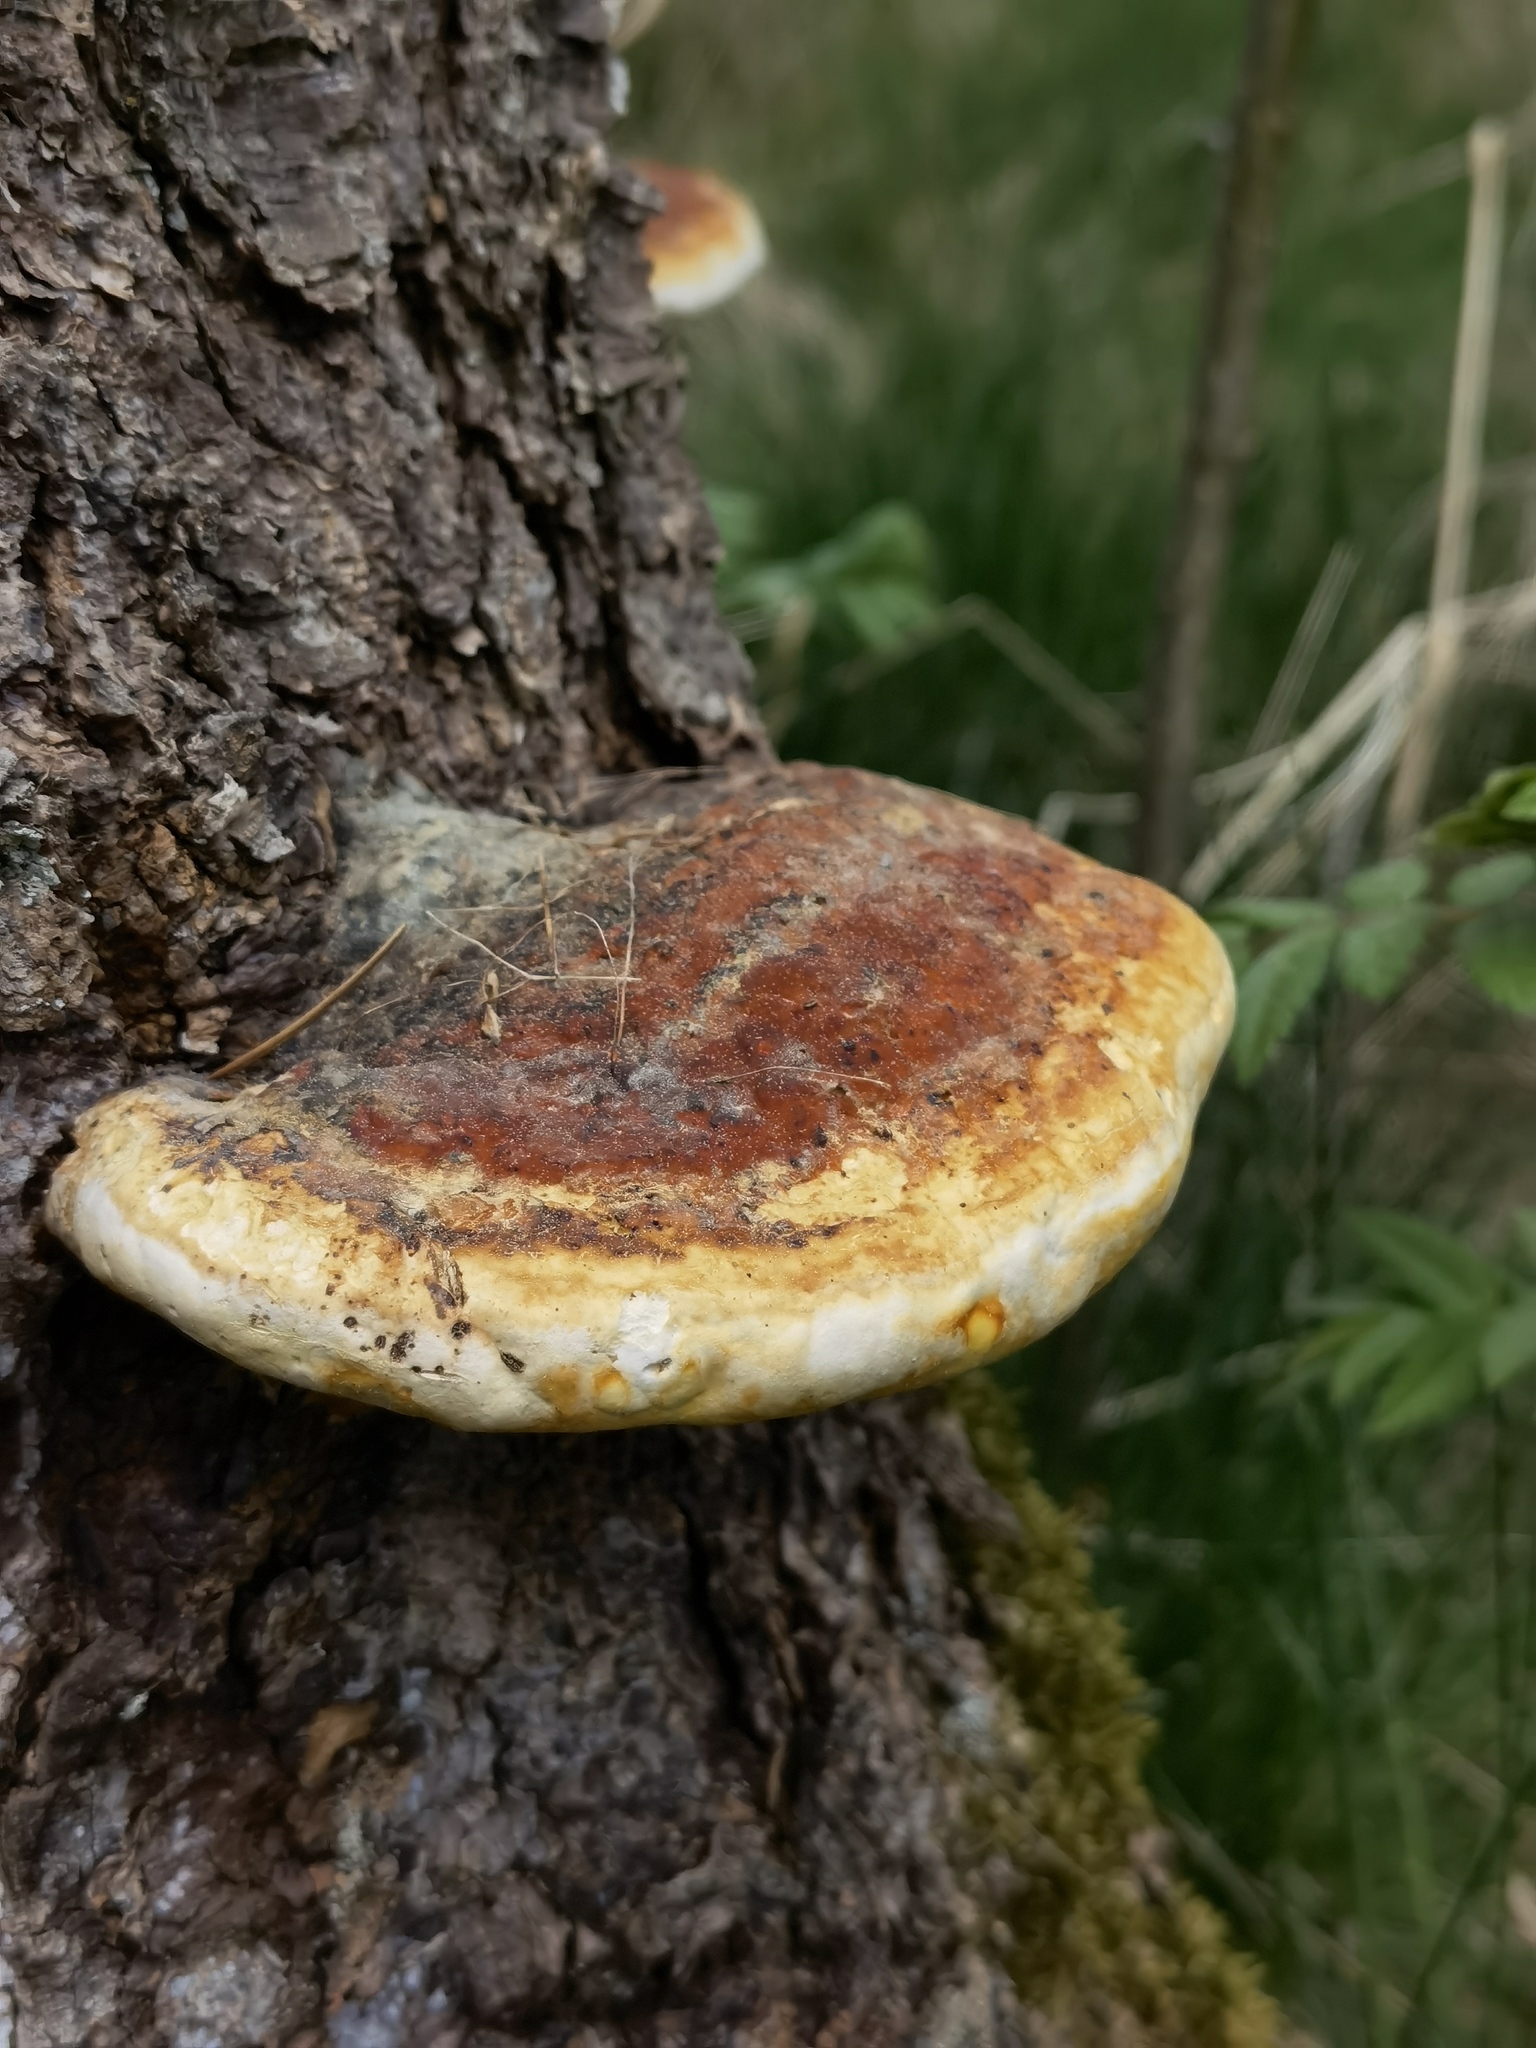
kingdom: Fungi
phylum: Basidiomycota
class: Agaricomycetes
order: Polyporales
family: Fomitopsidaceae
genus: Fomitopsis
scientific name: Fomitopsis pinicola
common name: Red-belted bracket
